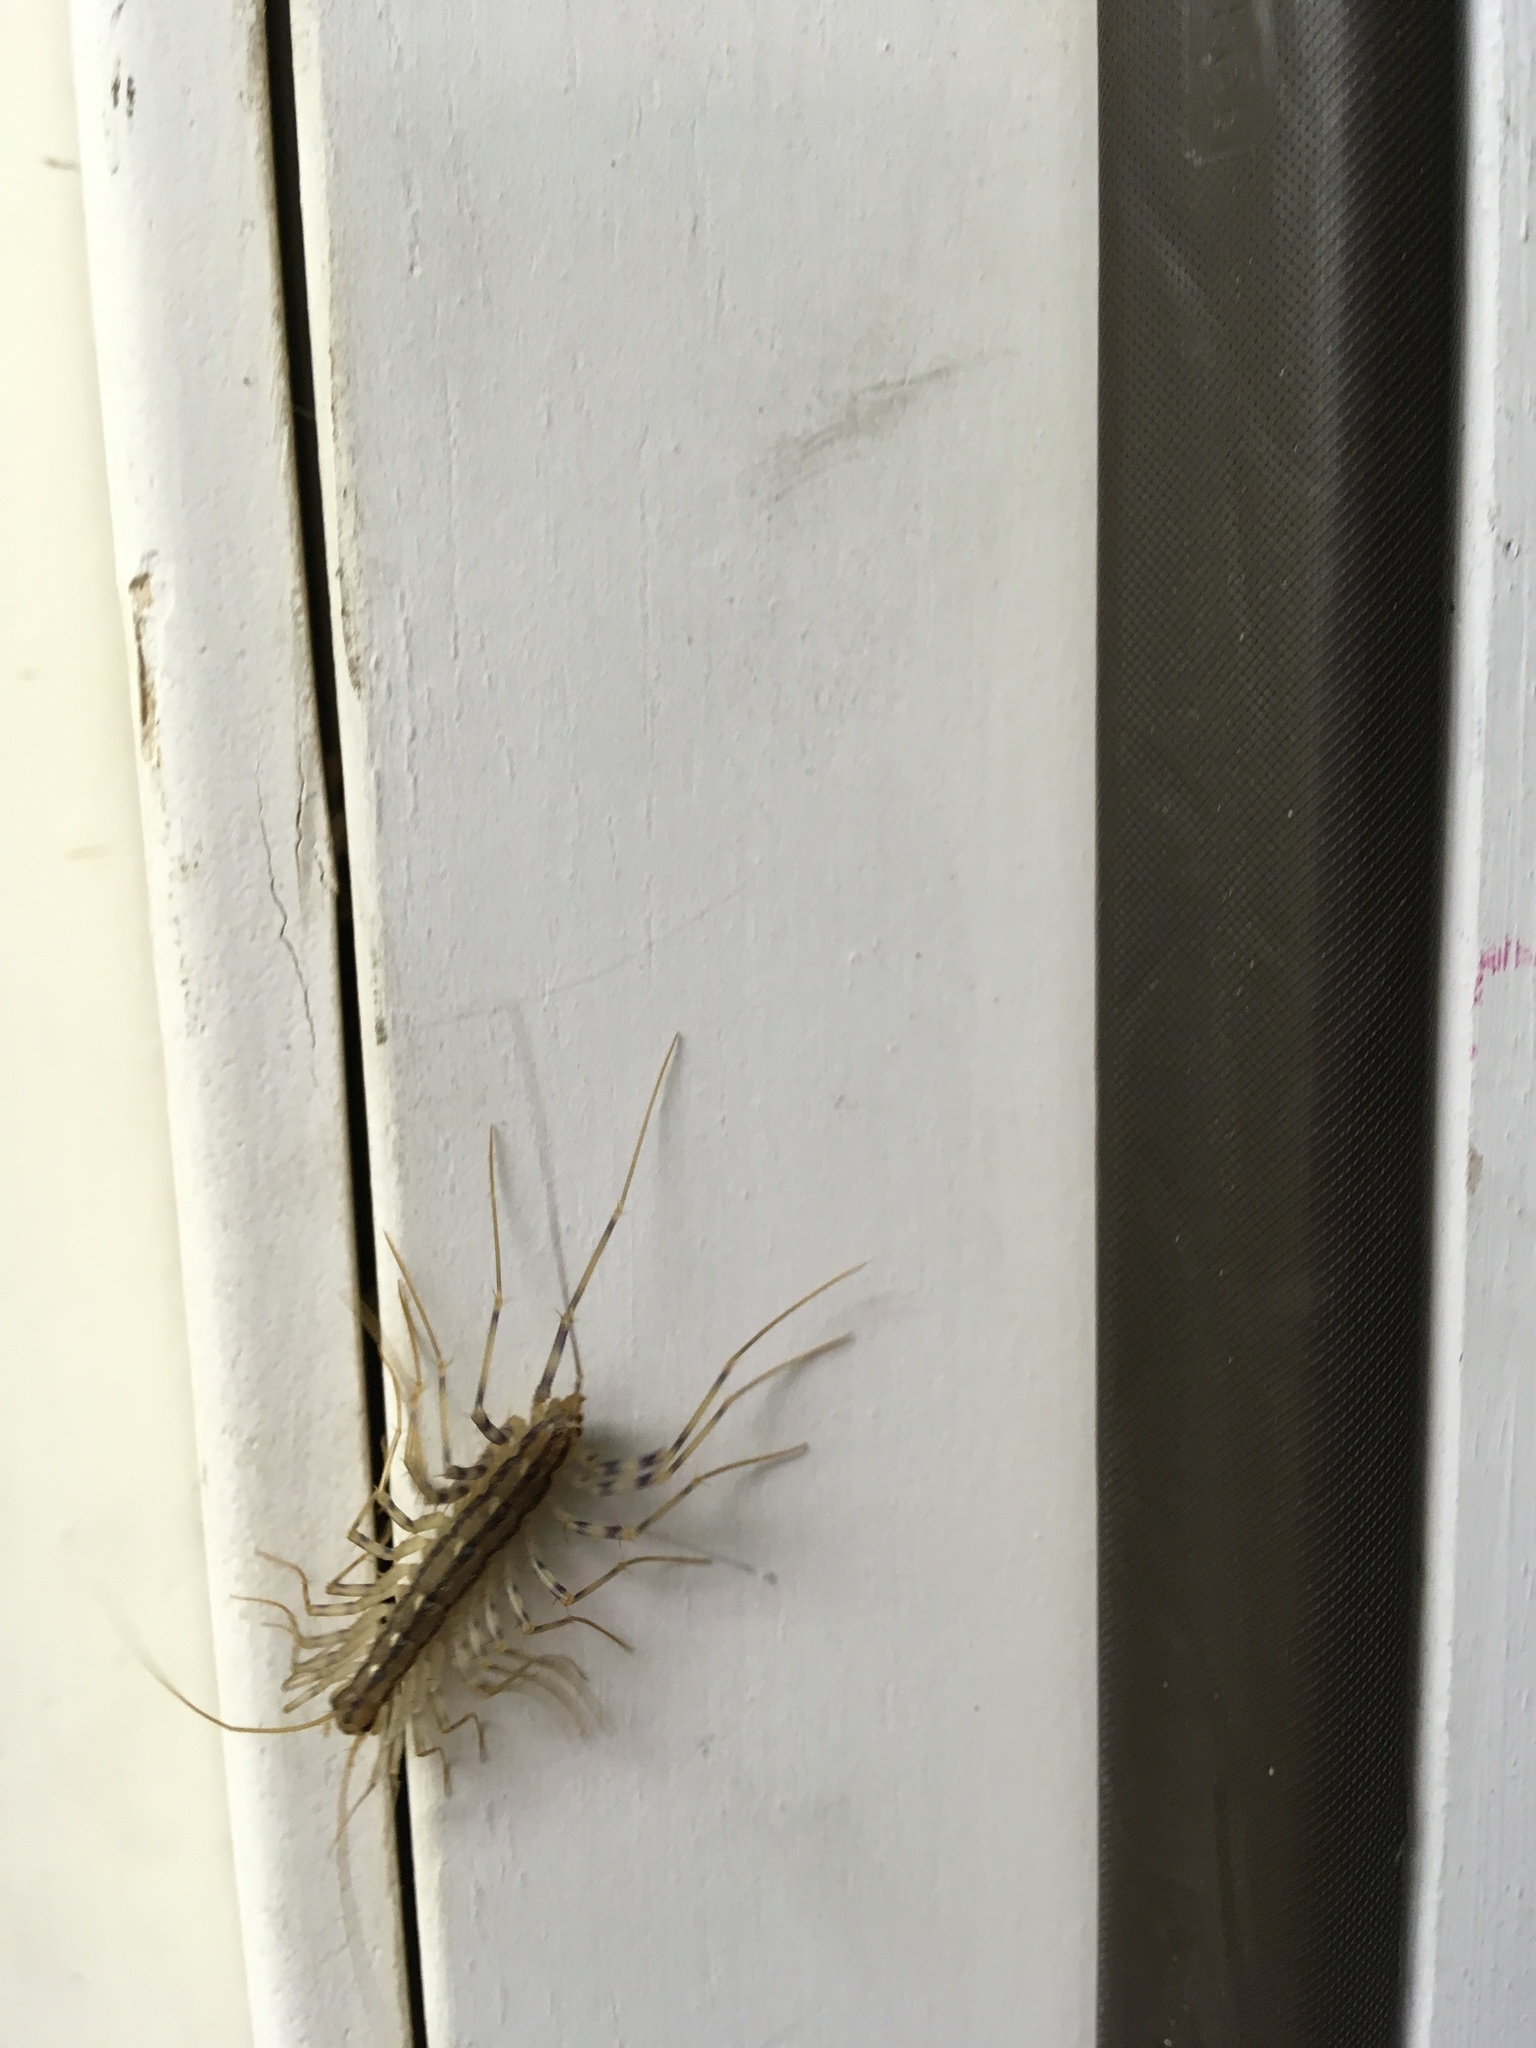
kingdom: Animalia
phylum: Arthropoda
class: Chilopoda
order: Scutigeromorpha
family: Scutigeridae
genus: Scutigera
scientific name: Scutigera coleoptrata
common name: House centipede
